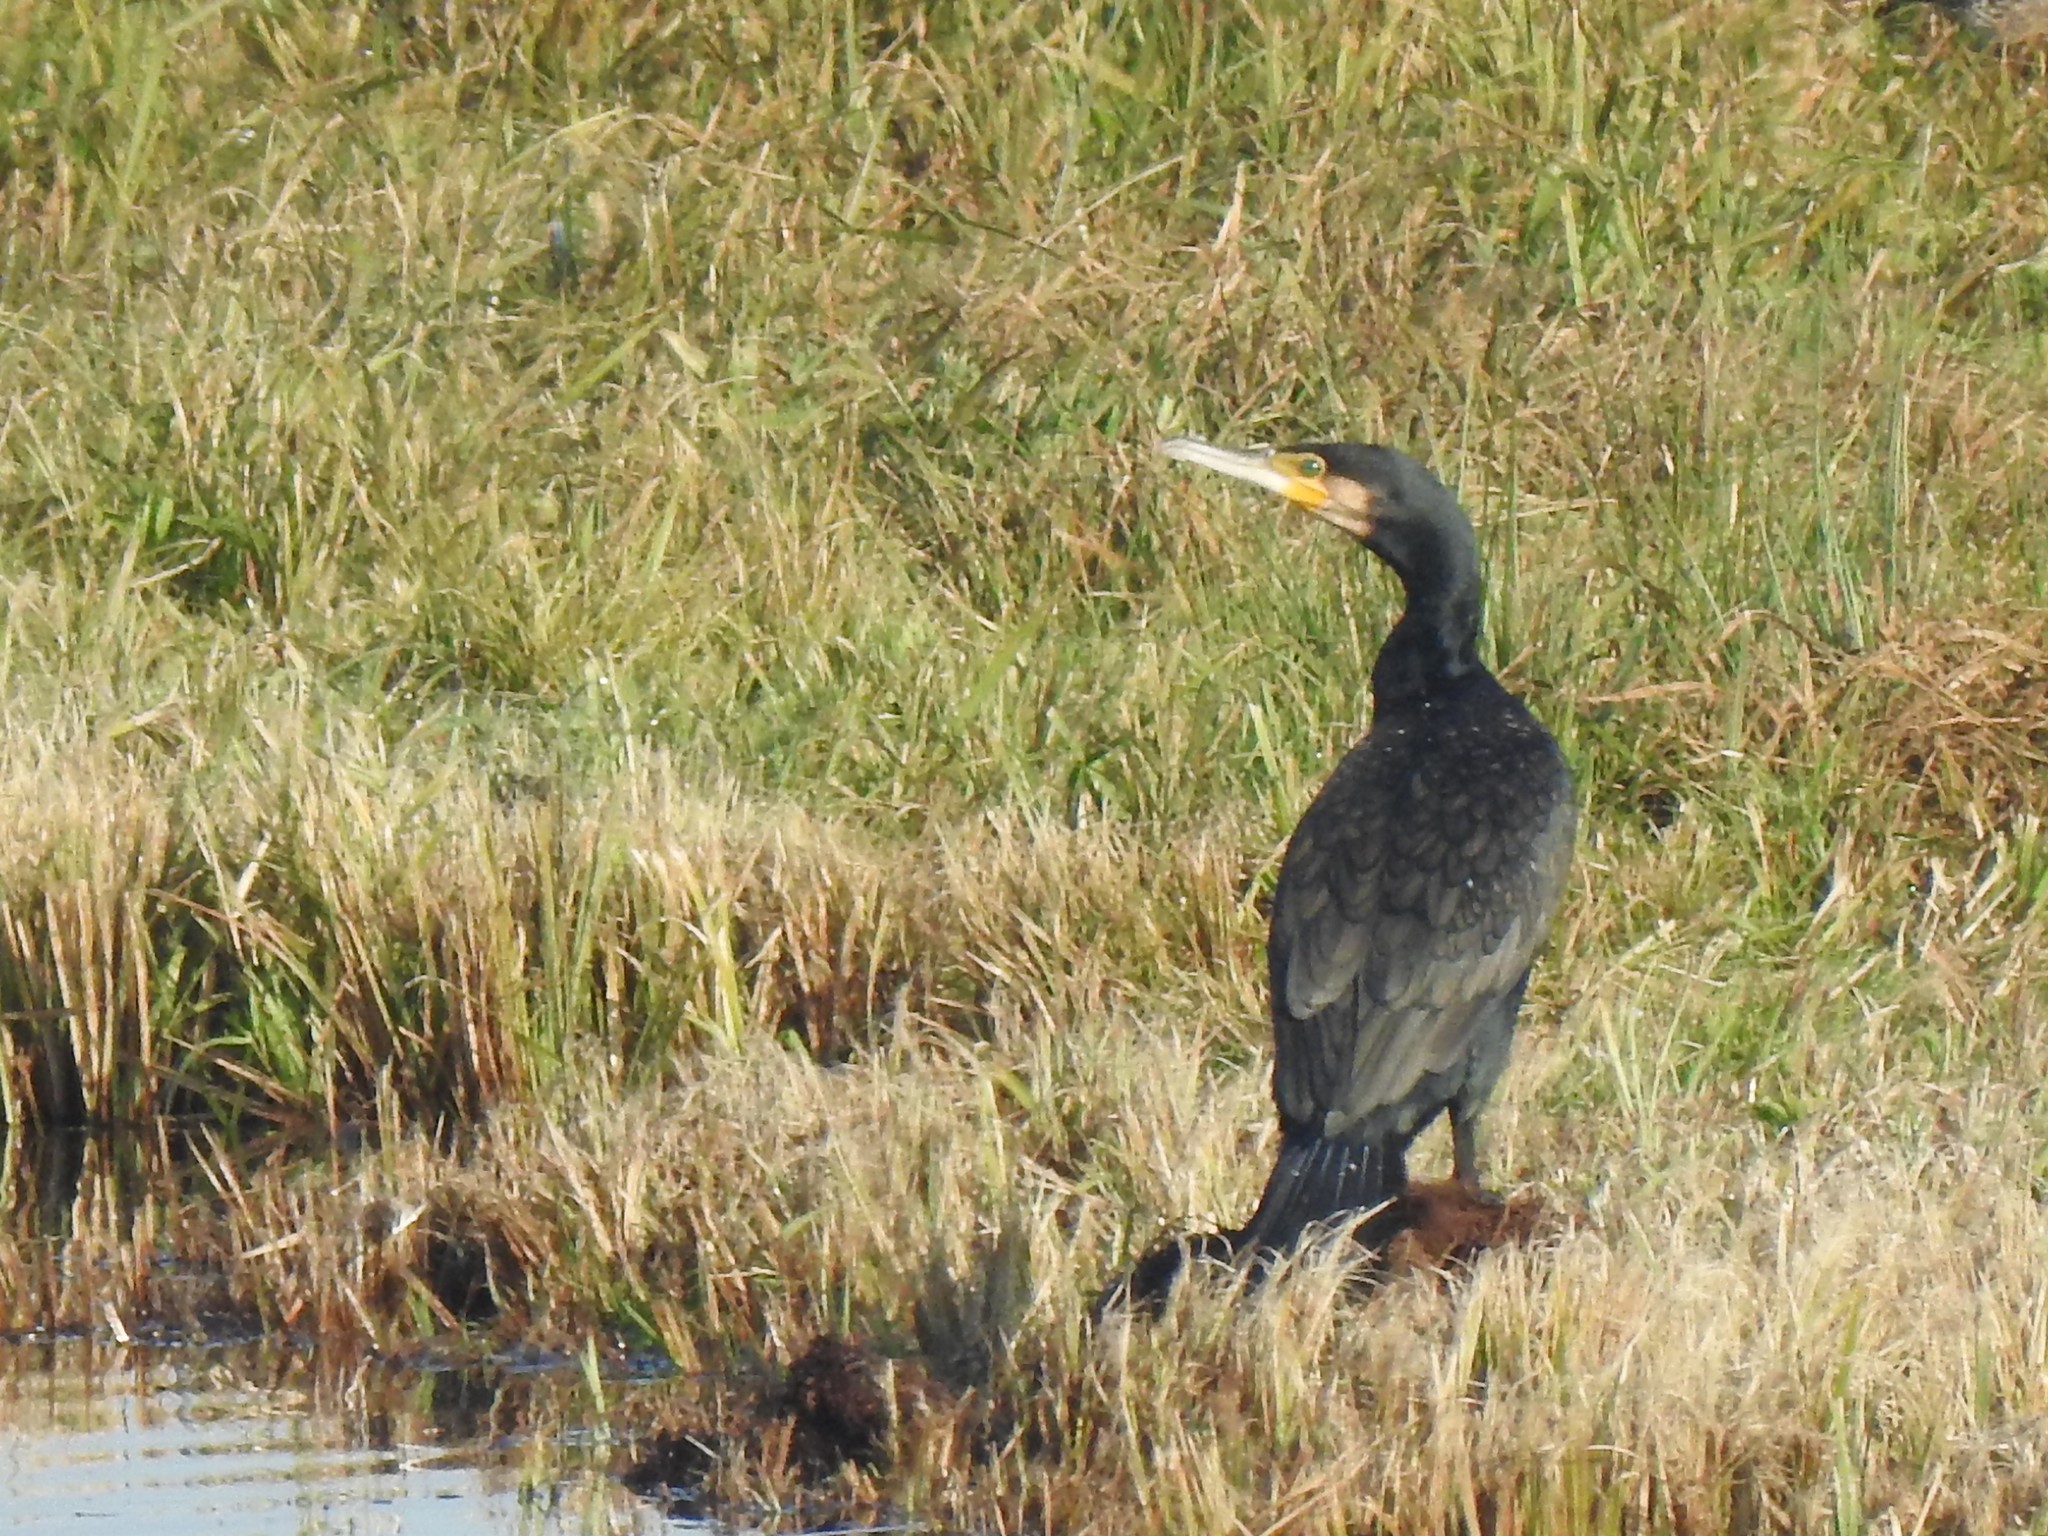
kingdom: Animalia
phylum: Chordata
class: Aves
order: Suliformes
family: Phalacrocoracidae
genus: Phalacrocorax
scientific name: Phalacrocorax carbo
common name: Great cormorant
